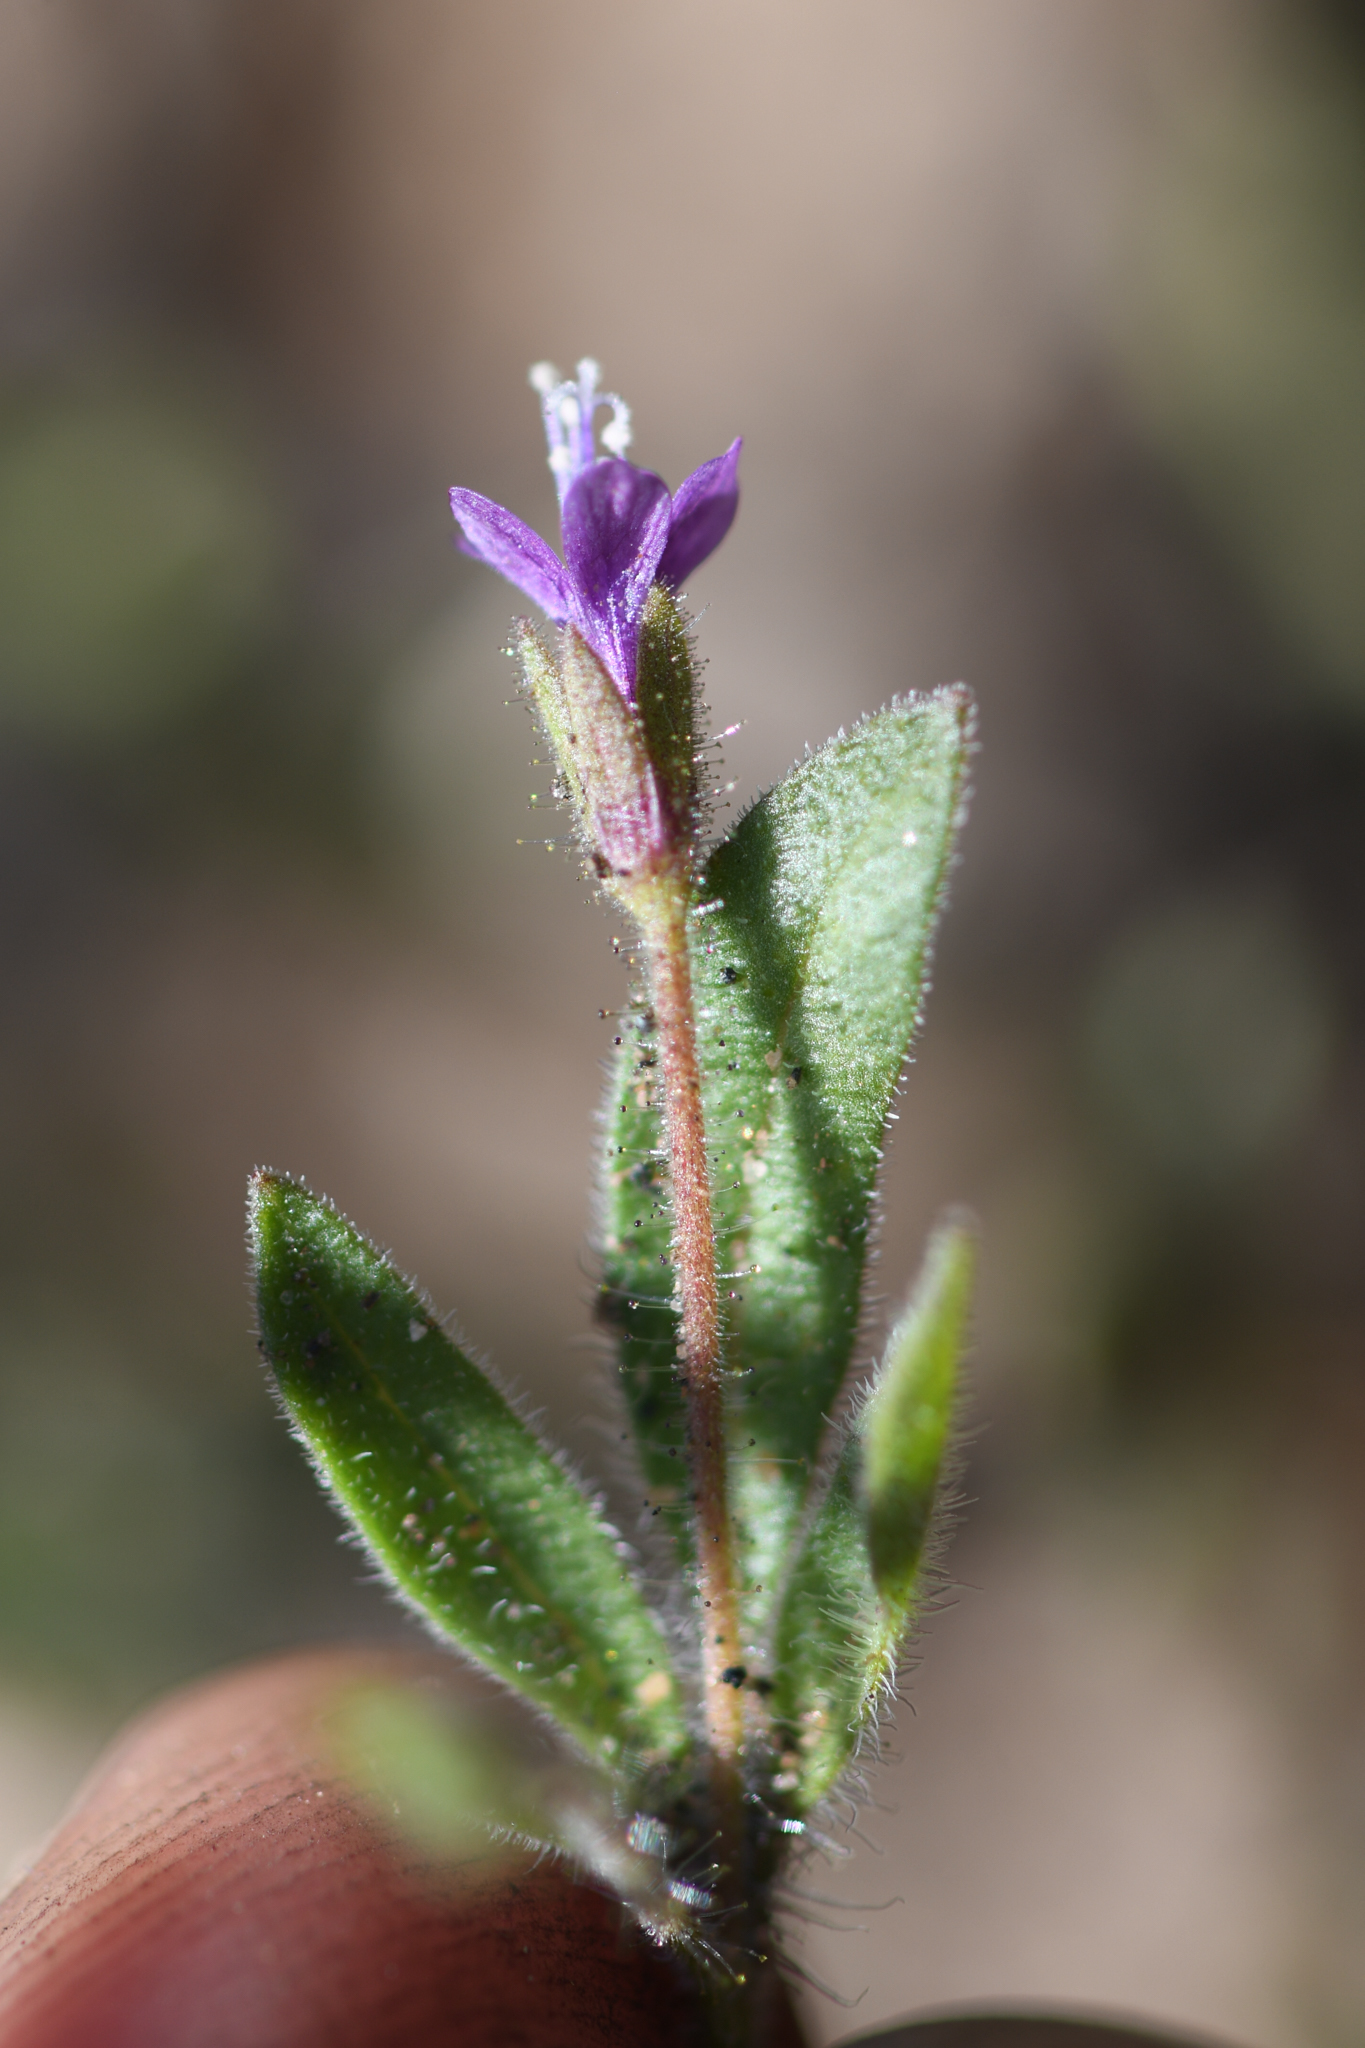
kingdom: Plantae
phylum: Tracheophyta
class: Magnoliopsida
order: Ericales
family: Polemoniaceae
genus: Allophyllum
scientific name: Allophyllum glutinosum
